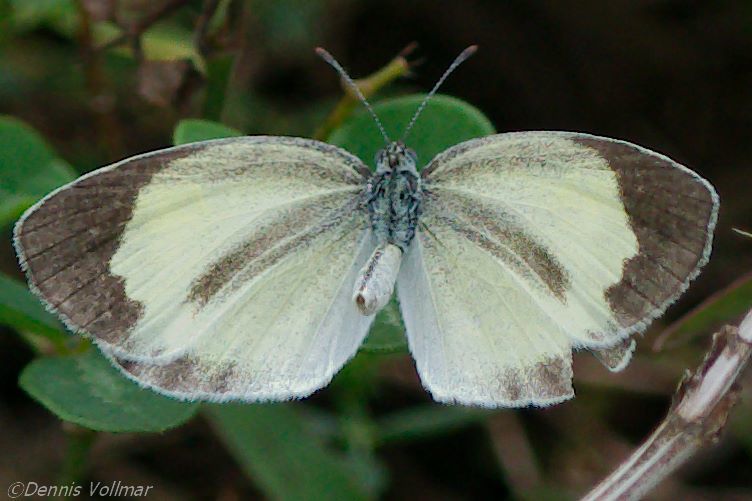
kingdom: Animalia
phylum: Arthropoda
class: Insecta
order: Lepidoptera
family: Pieridae
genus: Eurema
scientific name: Eurema daira
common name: Barred sulphur
